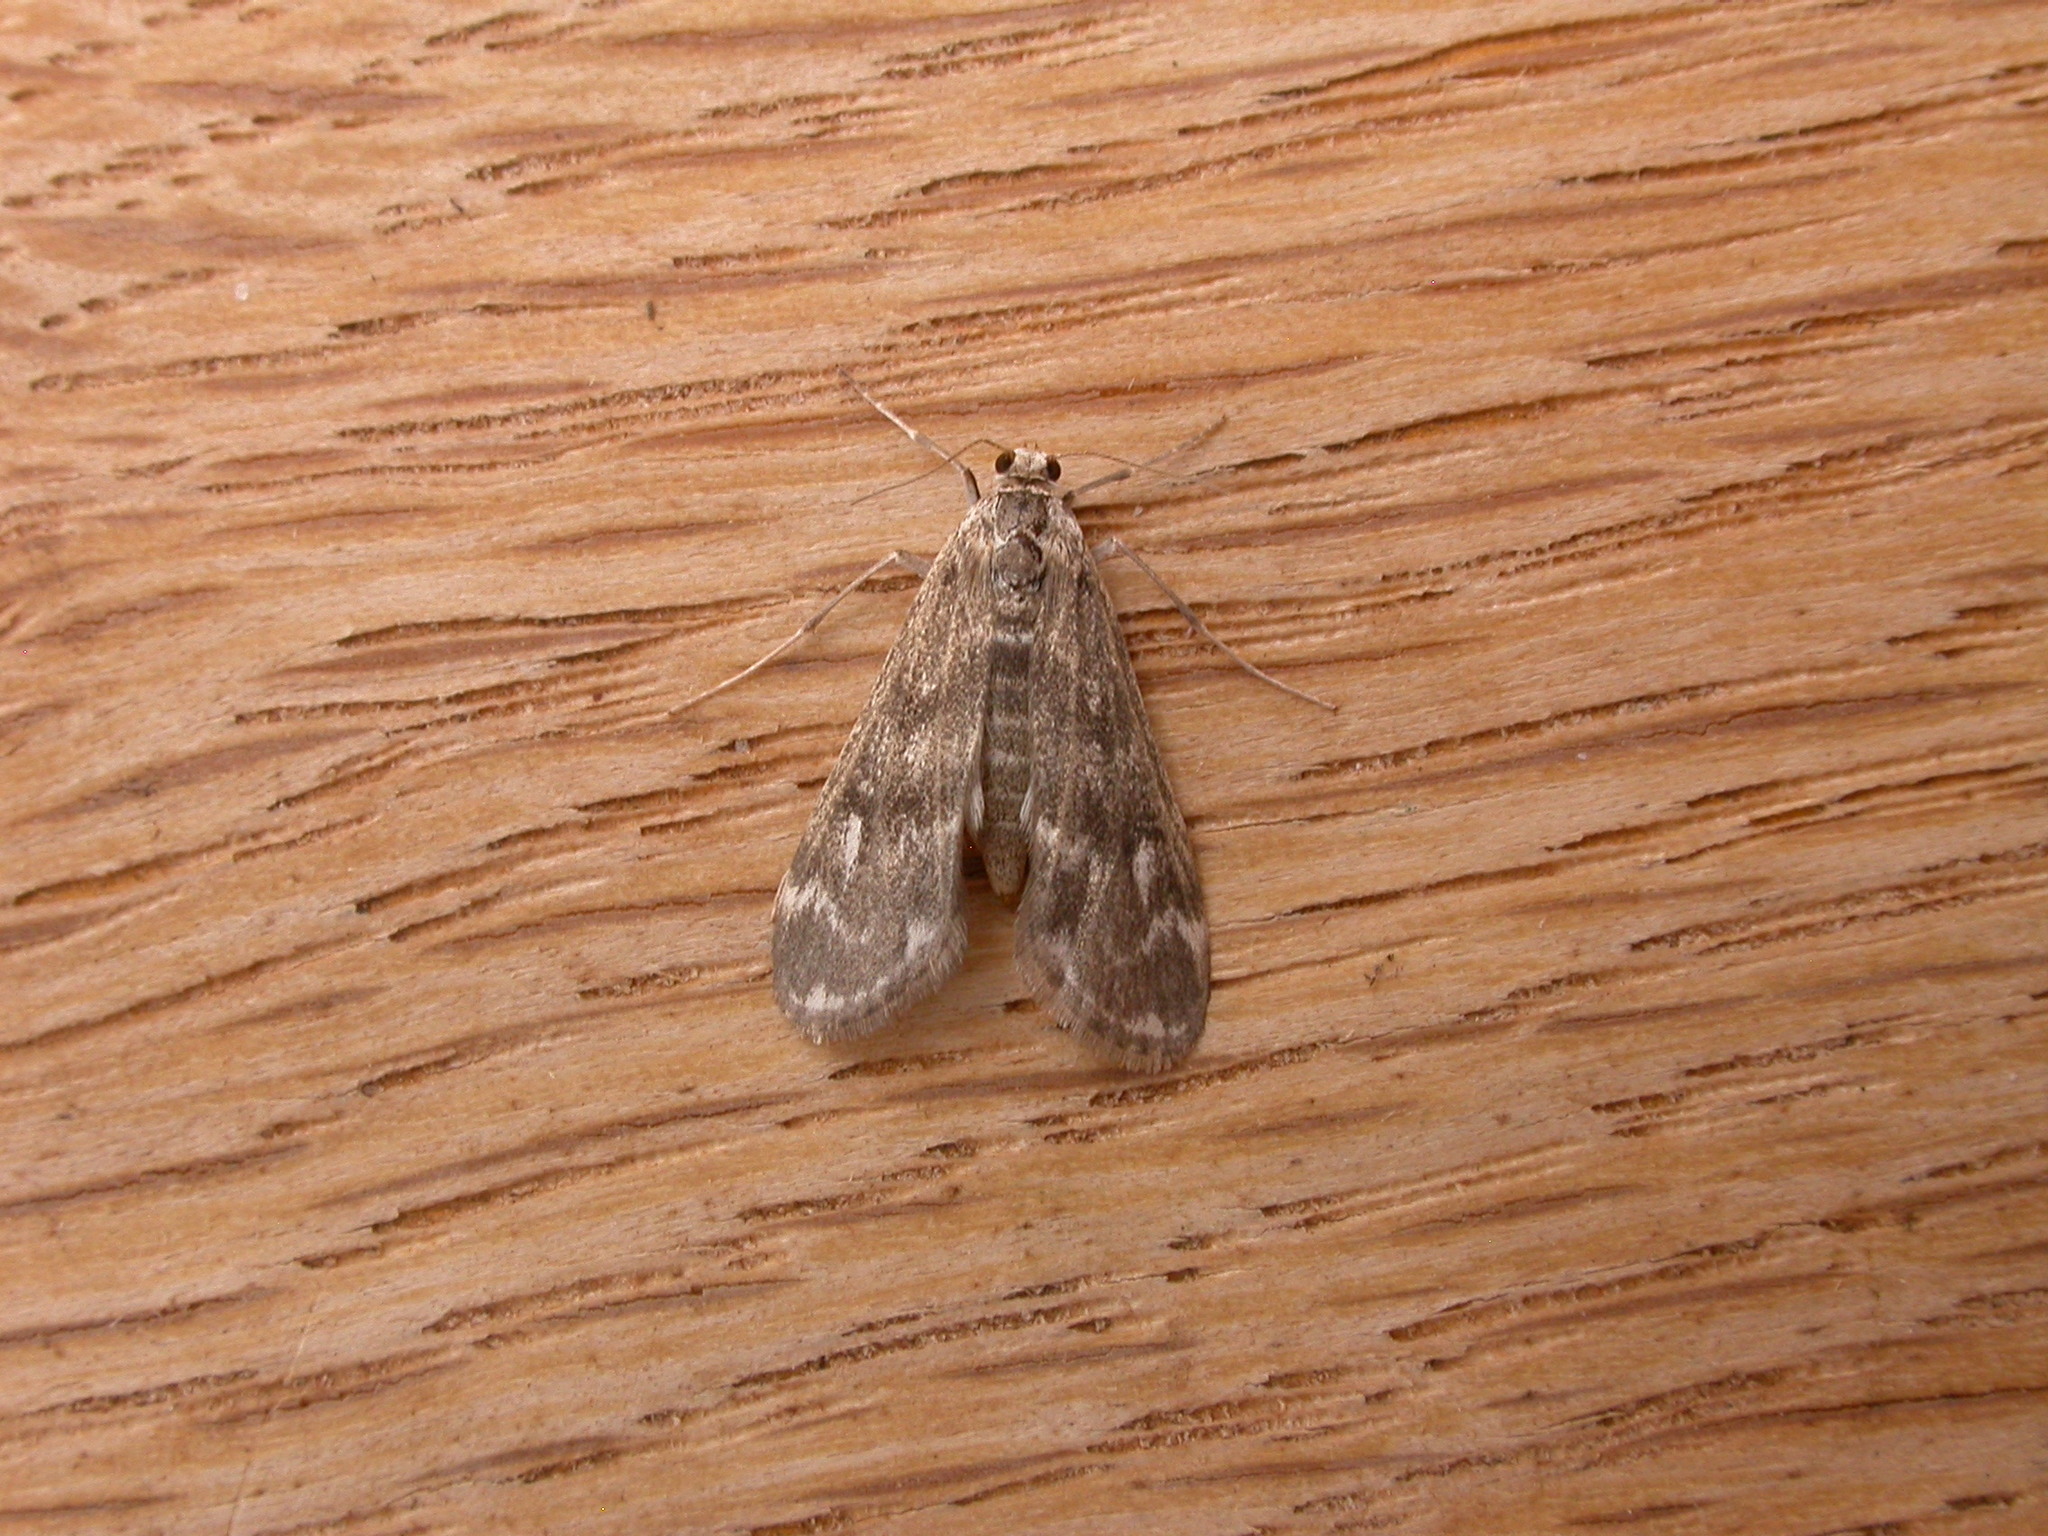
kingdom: Animalia
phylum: Arthropoda
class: Insecta
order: Lepidoptera
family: Crambidae
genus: Hygraula
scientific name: Hygraula nitens
